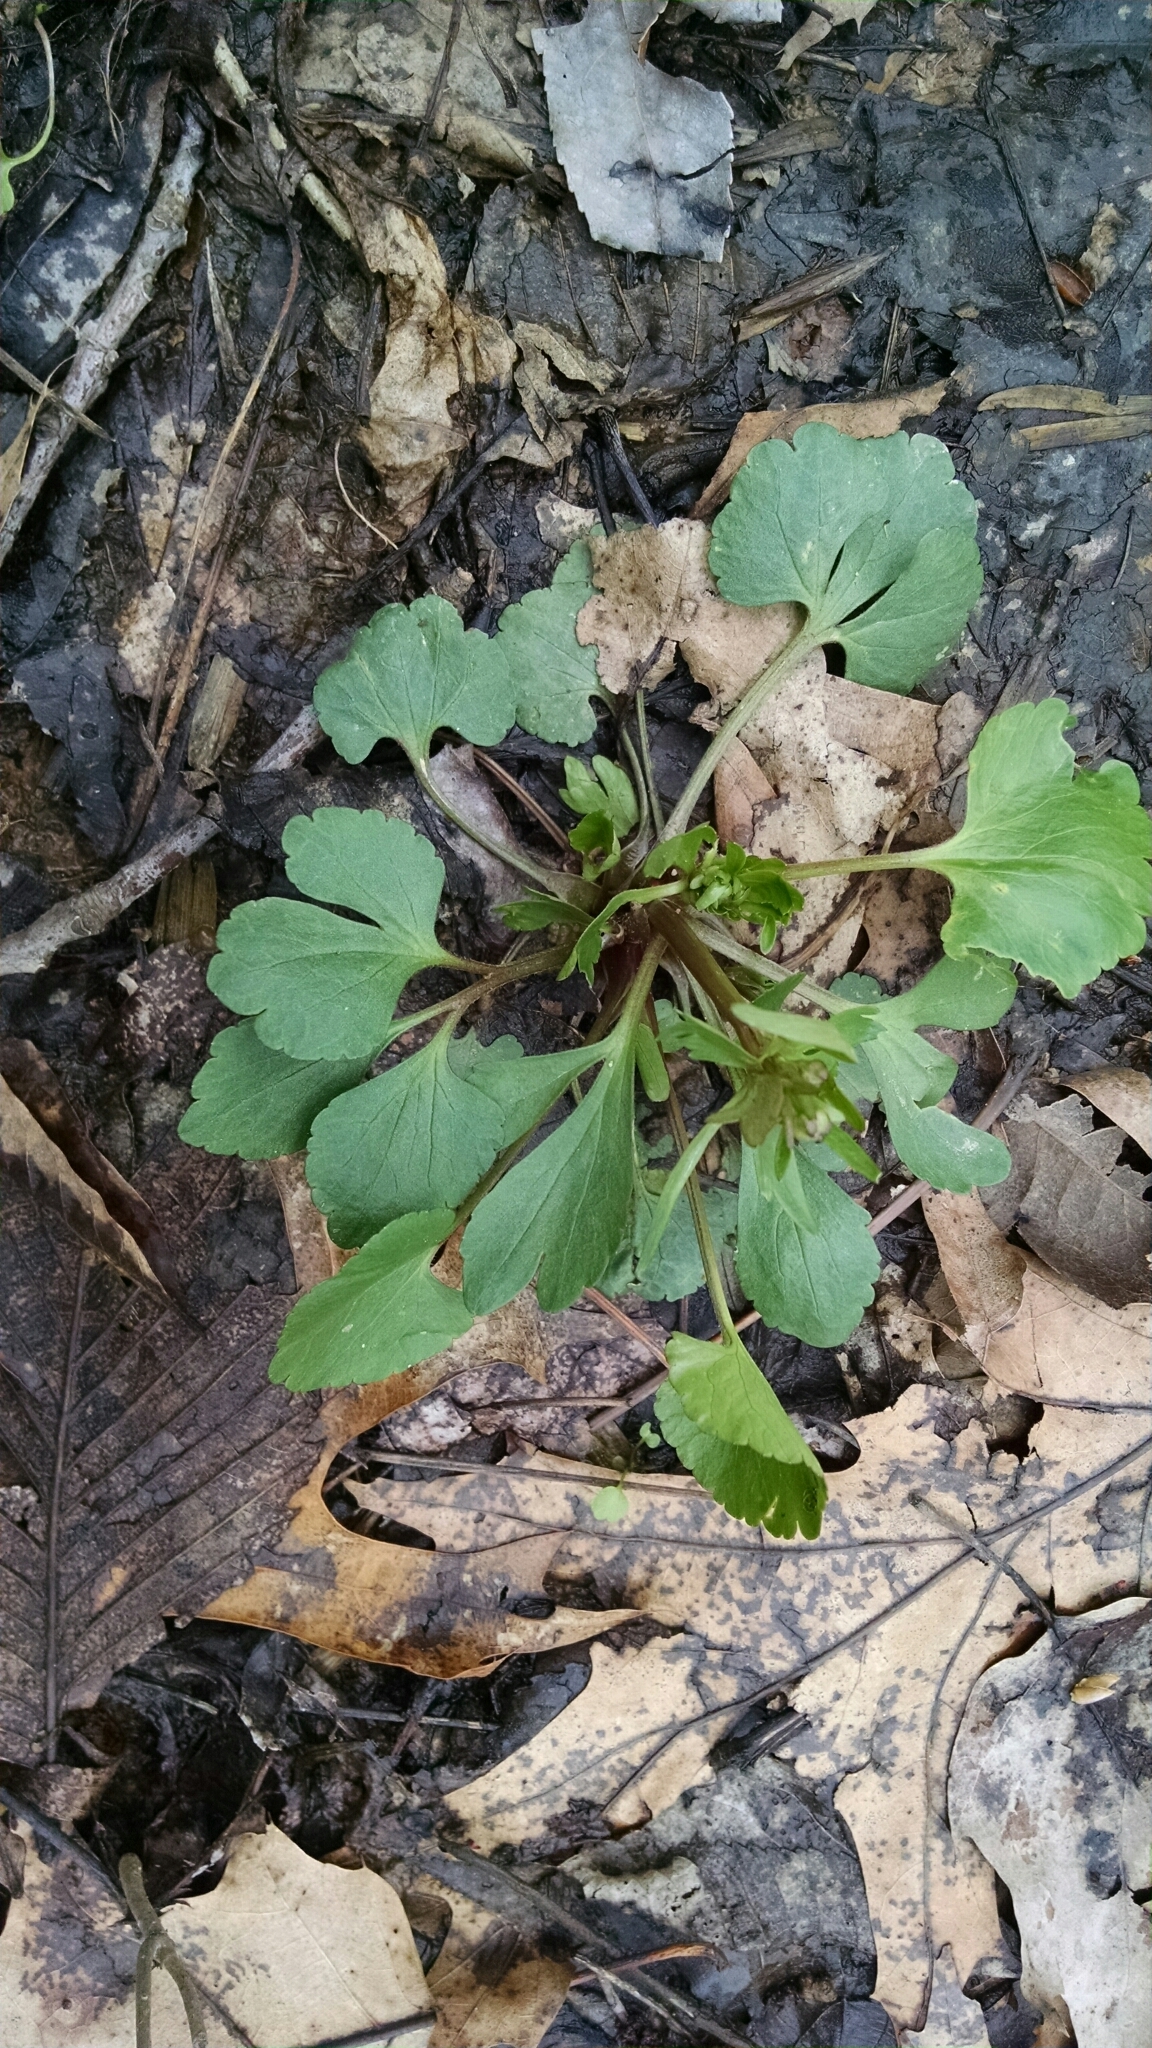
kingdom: Plantae
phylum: Tracheophyta
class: Magnoliopsida
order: Ranunculales
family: Ranunculaceae
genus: Ranunculus
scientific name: Ranunculus abortivus
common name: Early wood buttercup
